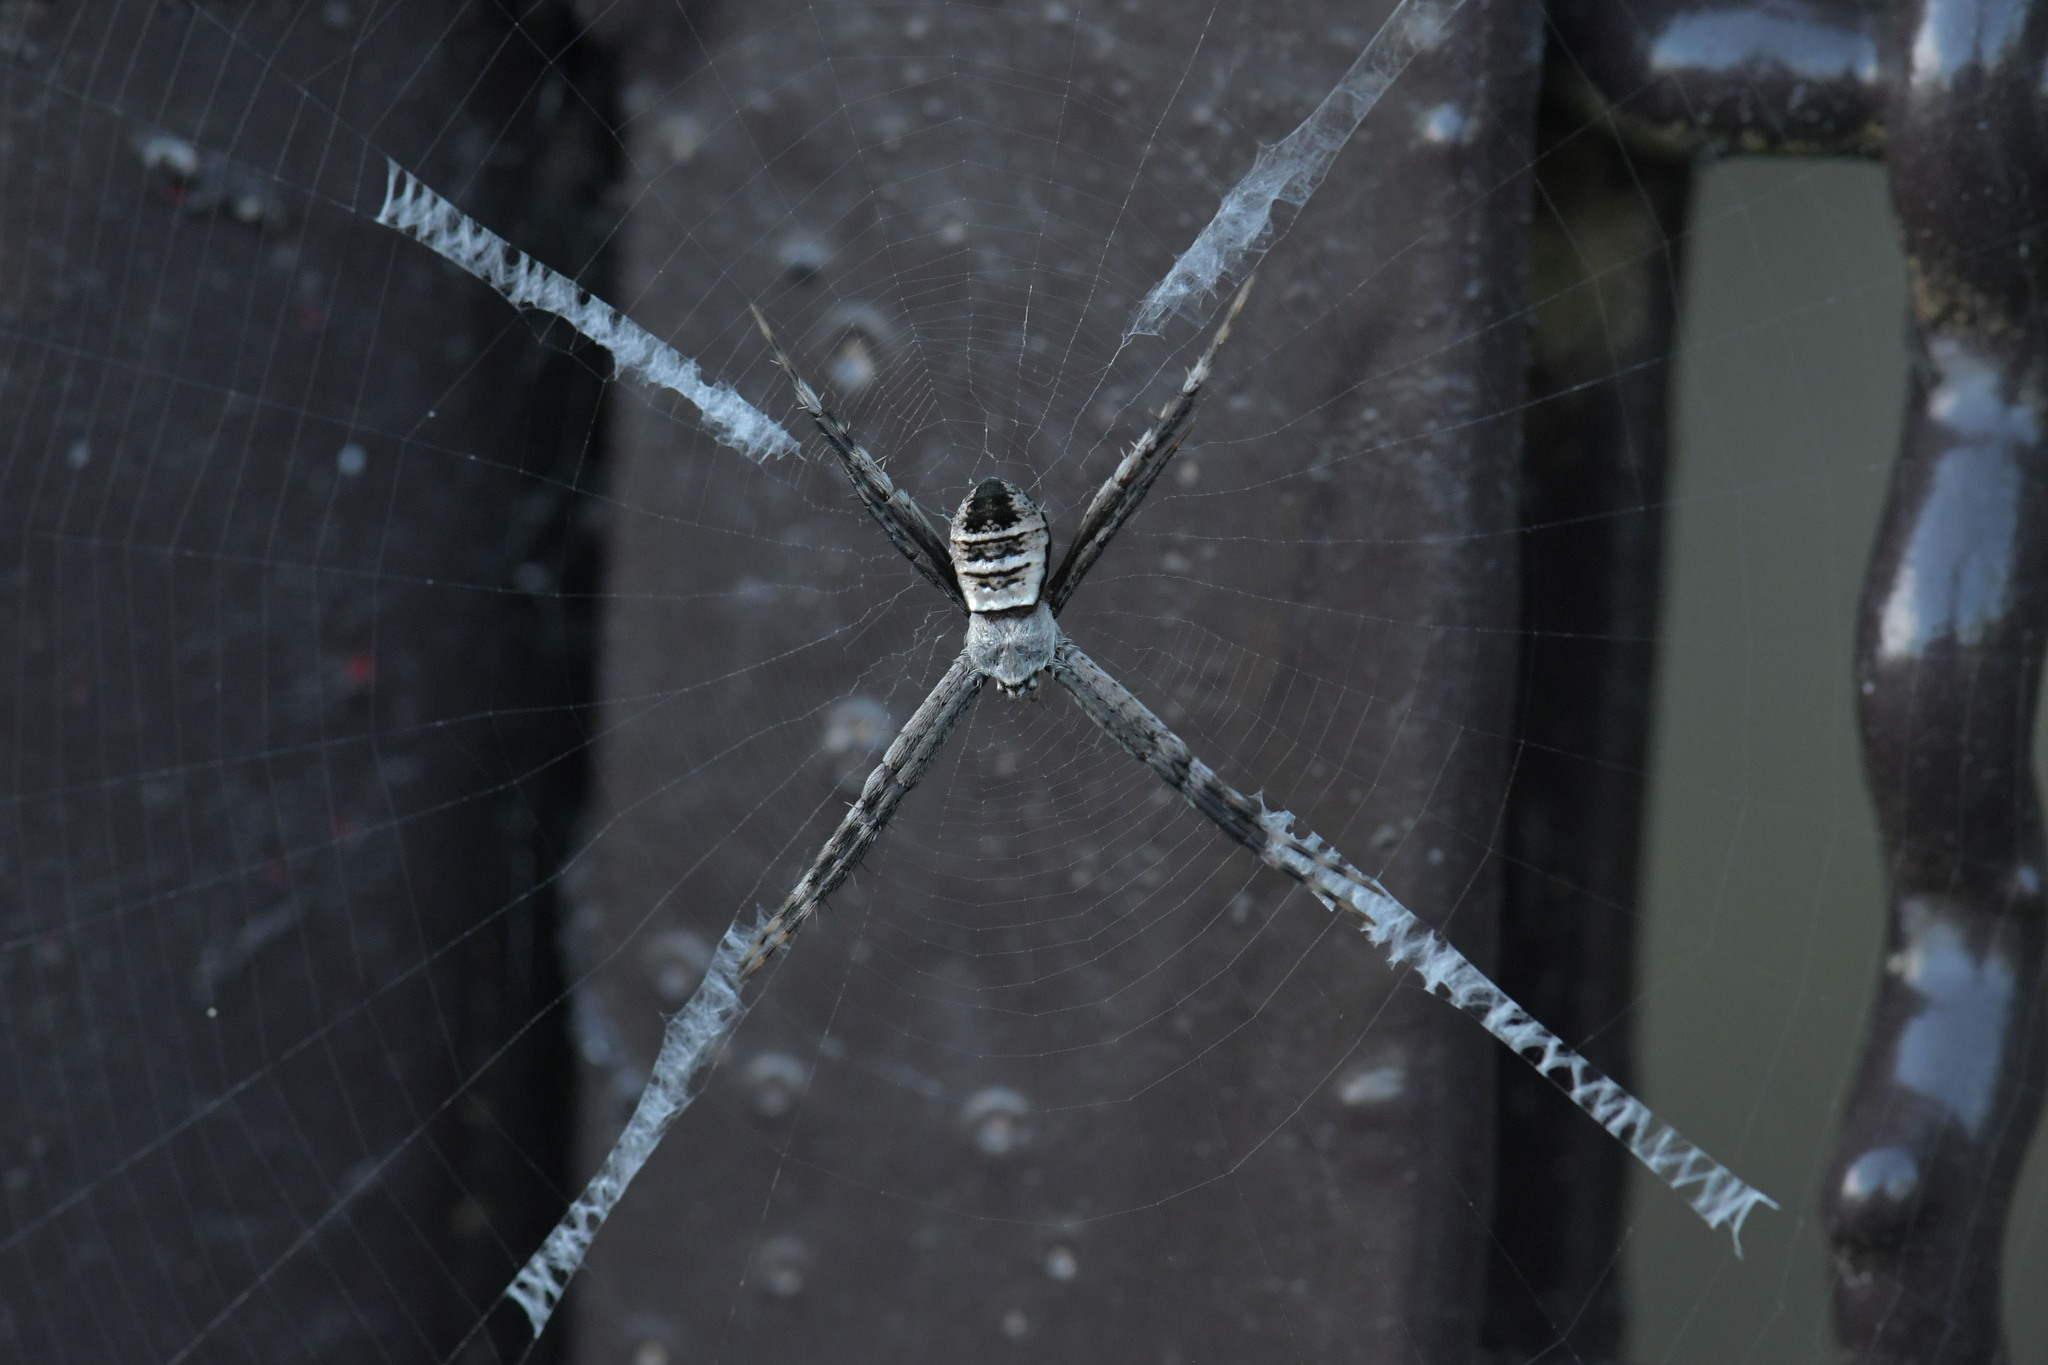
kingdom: Animalia
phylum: Arthropoda
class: Arachnida
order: Araneae
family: Araneidae
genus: Argiope
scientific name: Argiope aemula
